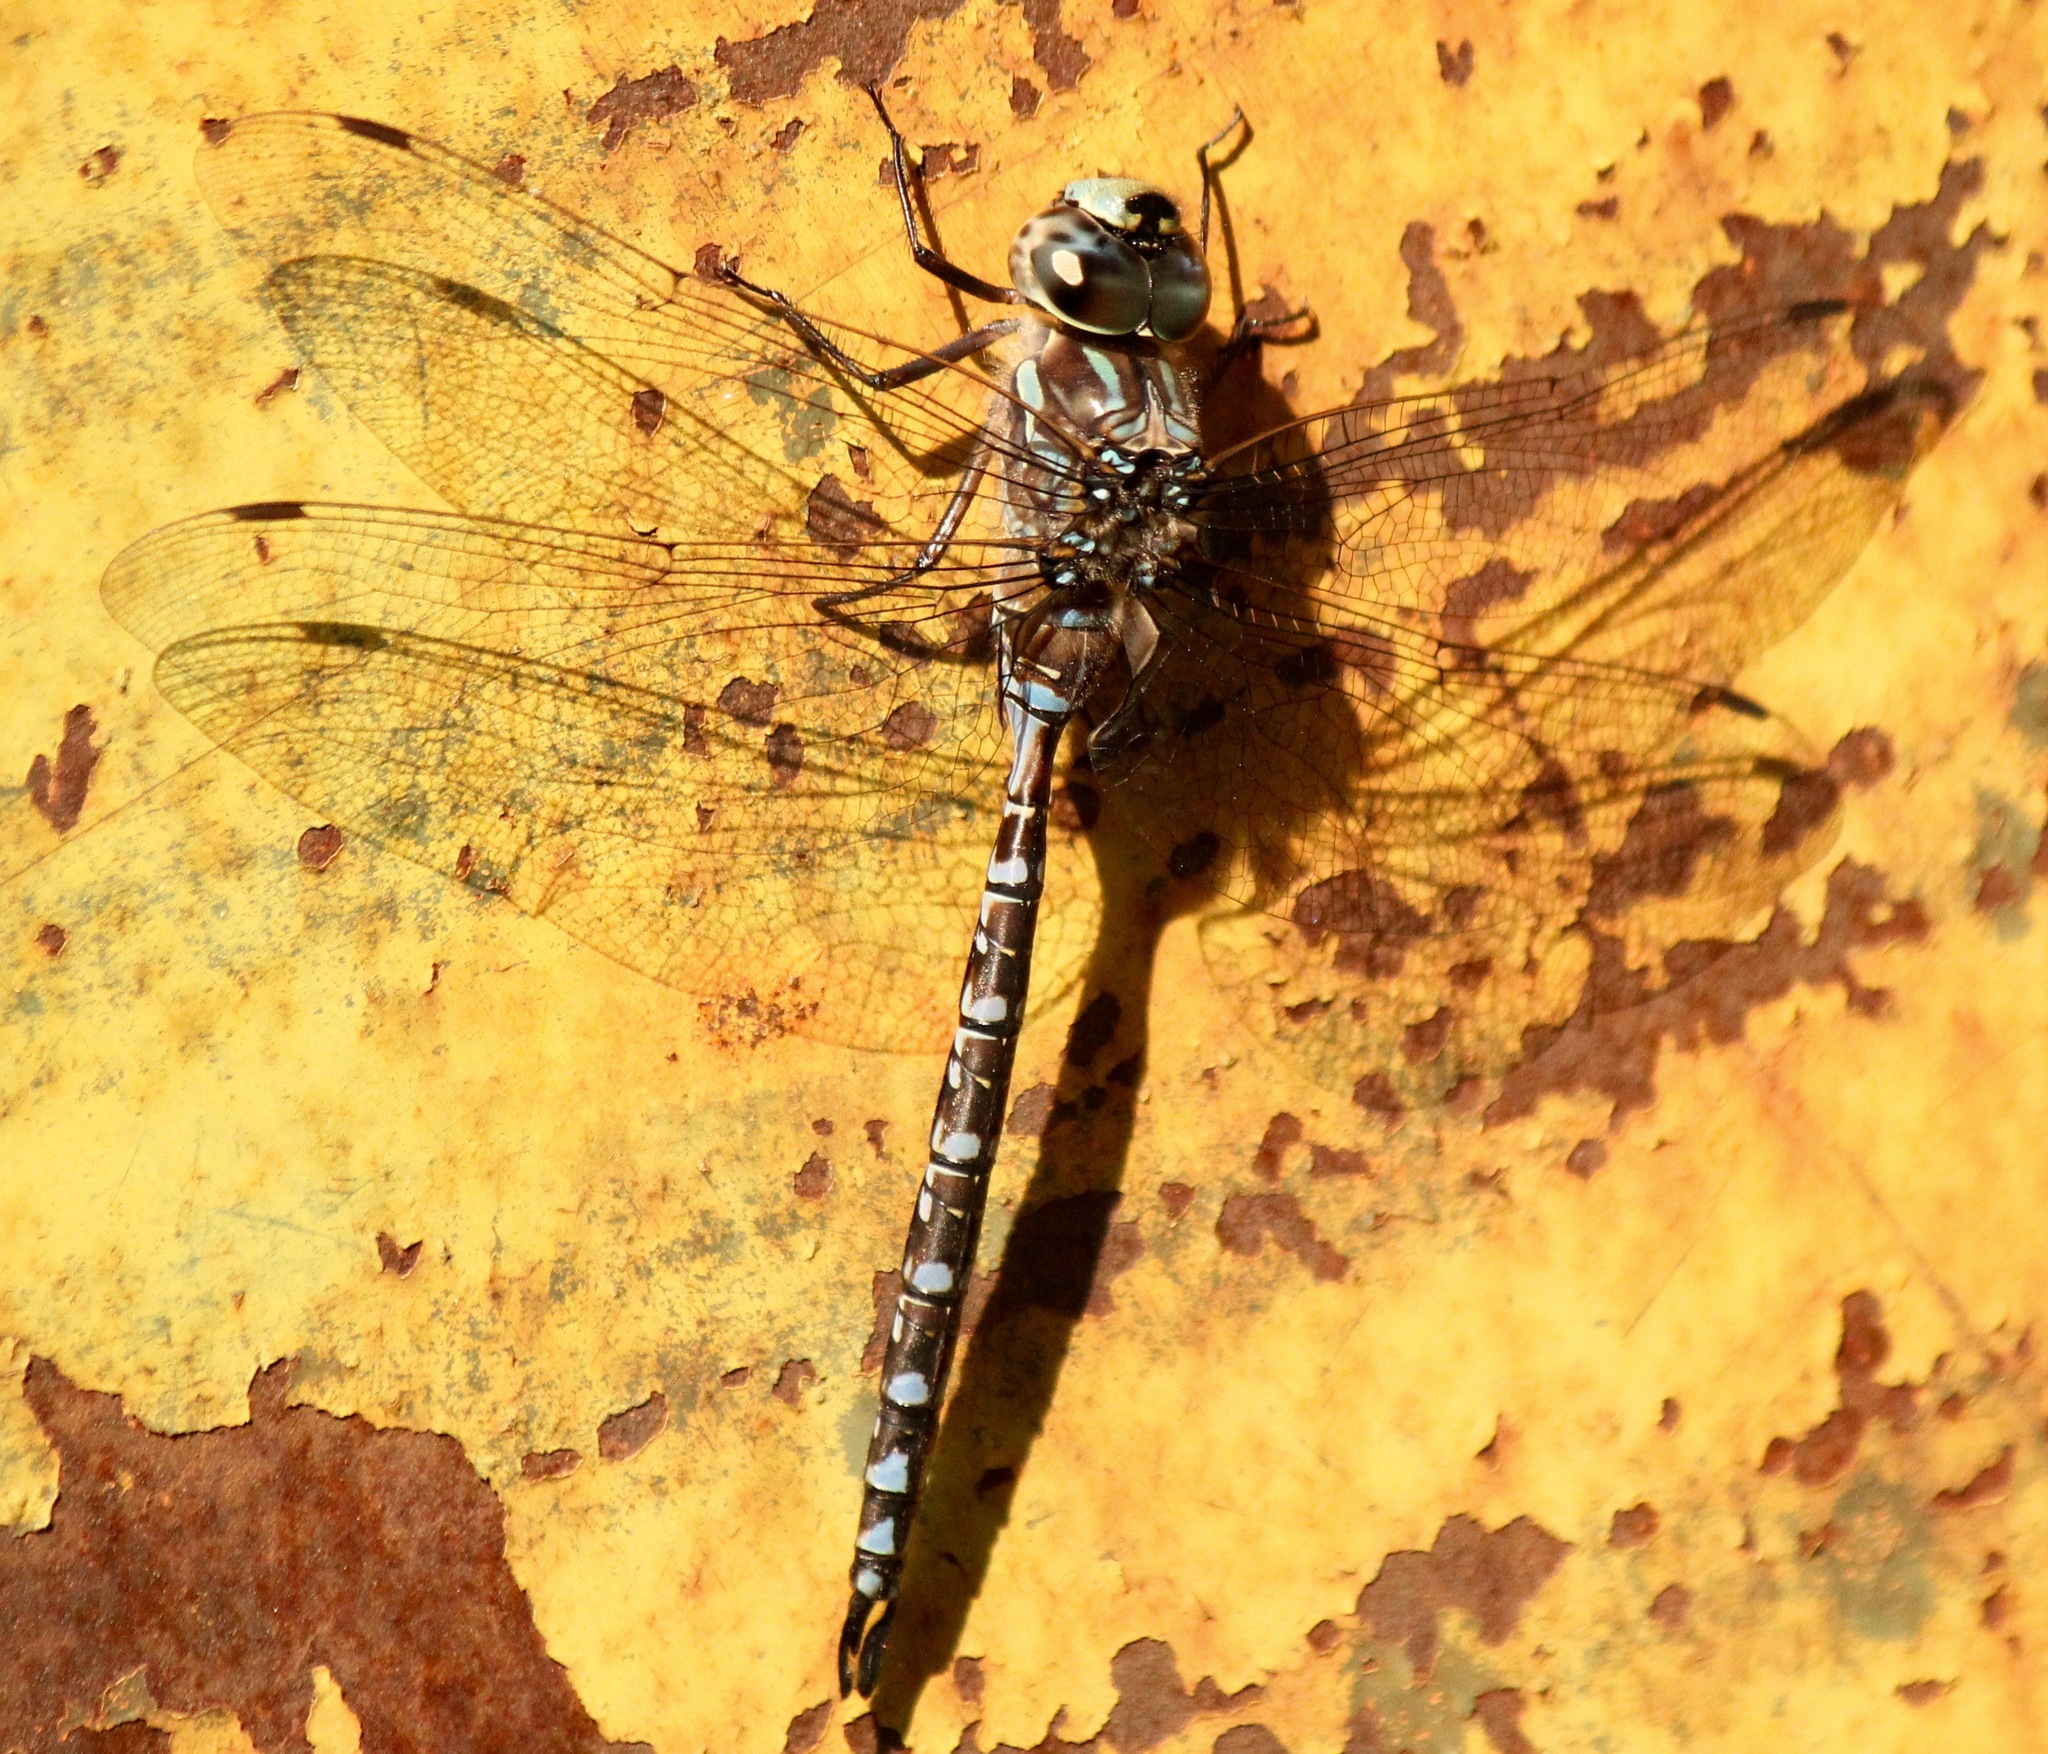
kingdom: Animalia
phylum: Arthropoda
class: Insecta
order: Odonata
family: Aeshnidae
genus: Aeshna
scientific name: Aeshna canadensis
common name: Canada darner
